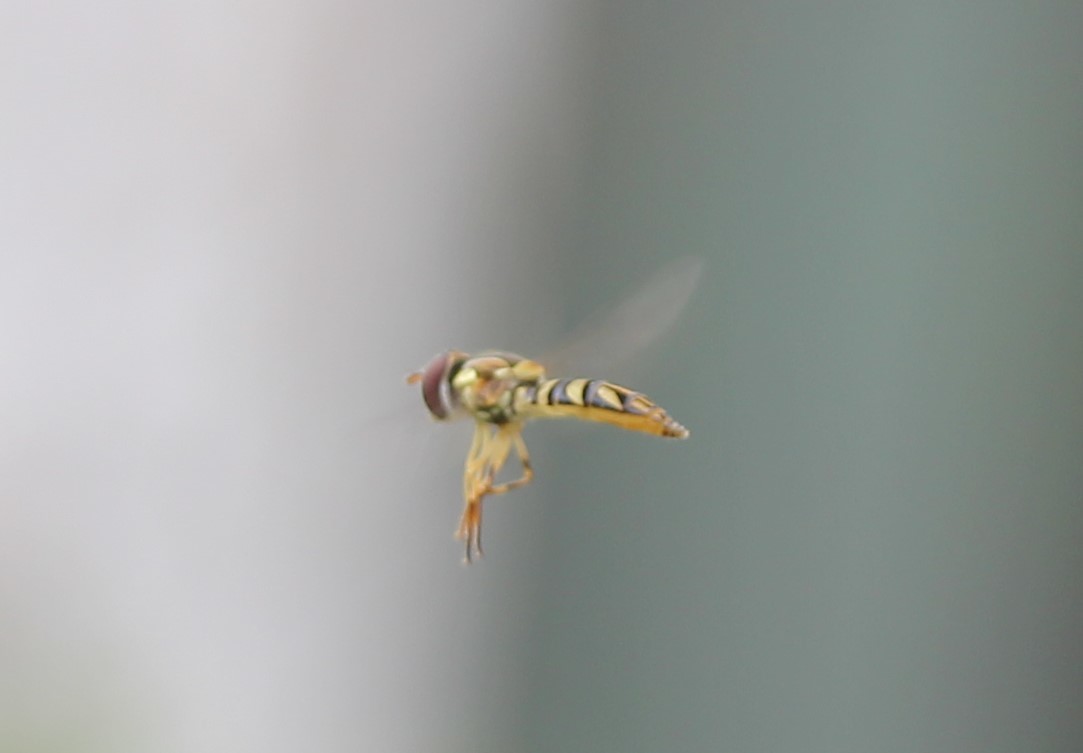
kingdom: Animalia
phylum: Arthropoda
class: Insecta
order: Diptera
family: Syrphidae
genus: Allograpta
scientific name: Allograpta obliqua
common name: Common oblique syrphid
